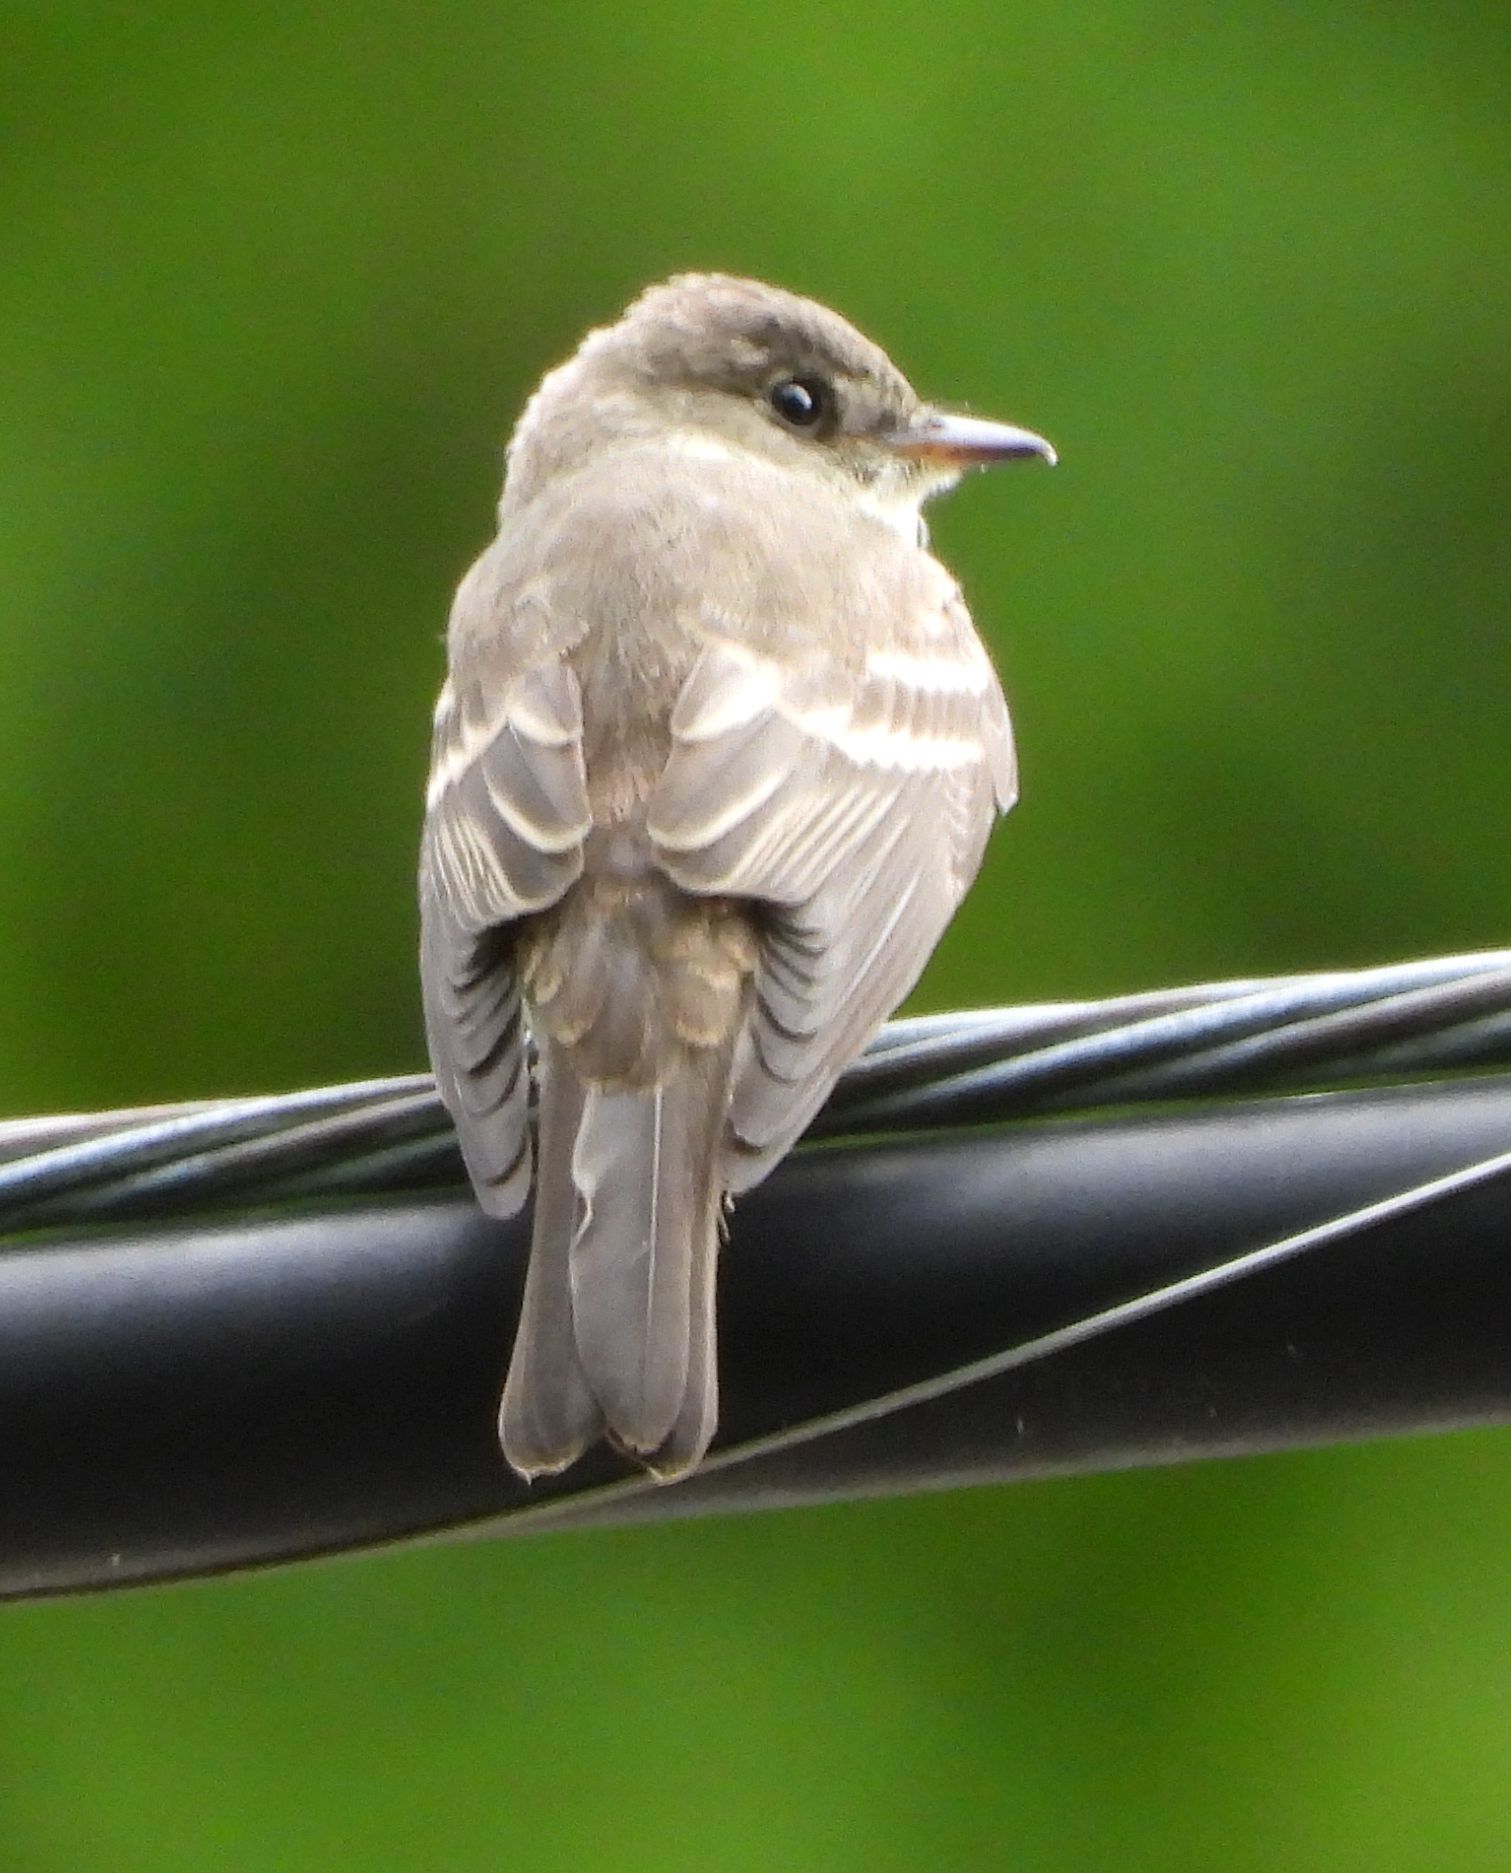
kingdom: Animalia
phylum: Chordata
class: Aves
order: Passeriformes
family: Tyrannidae
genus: Contopus
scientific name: Contopus virens
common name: Eastern wood-pewee
